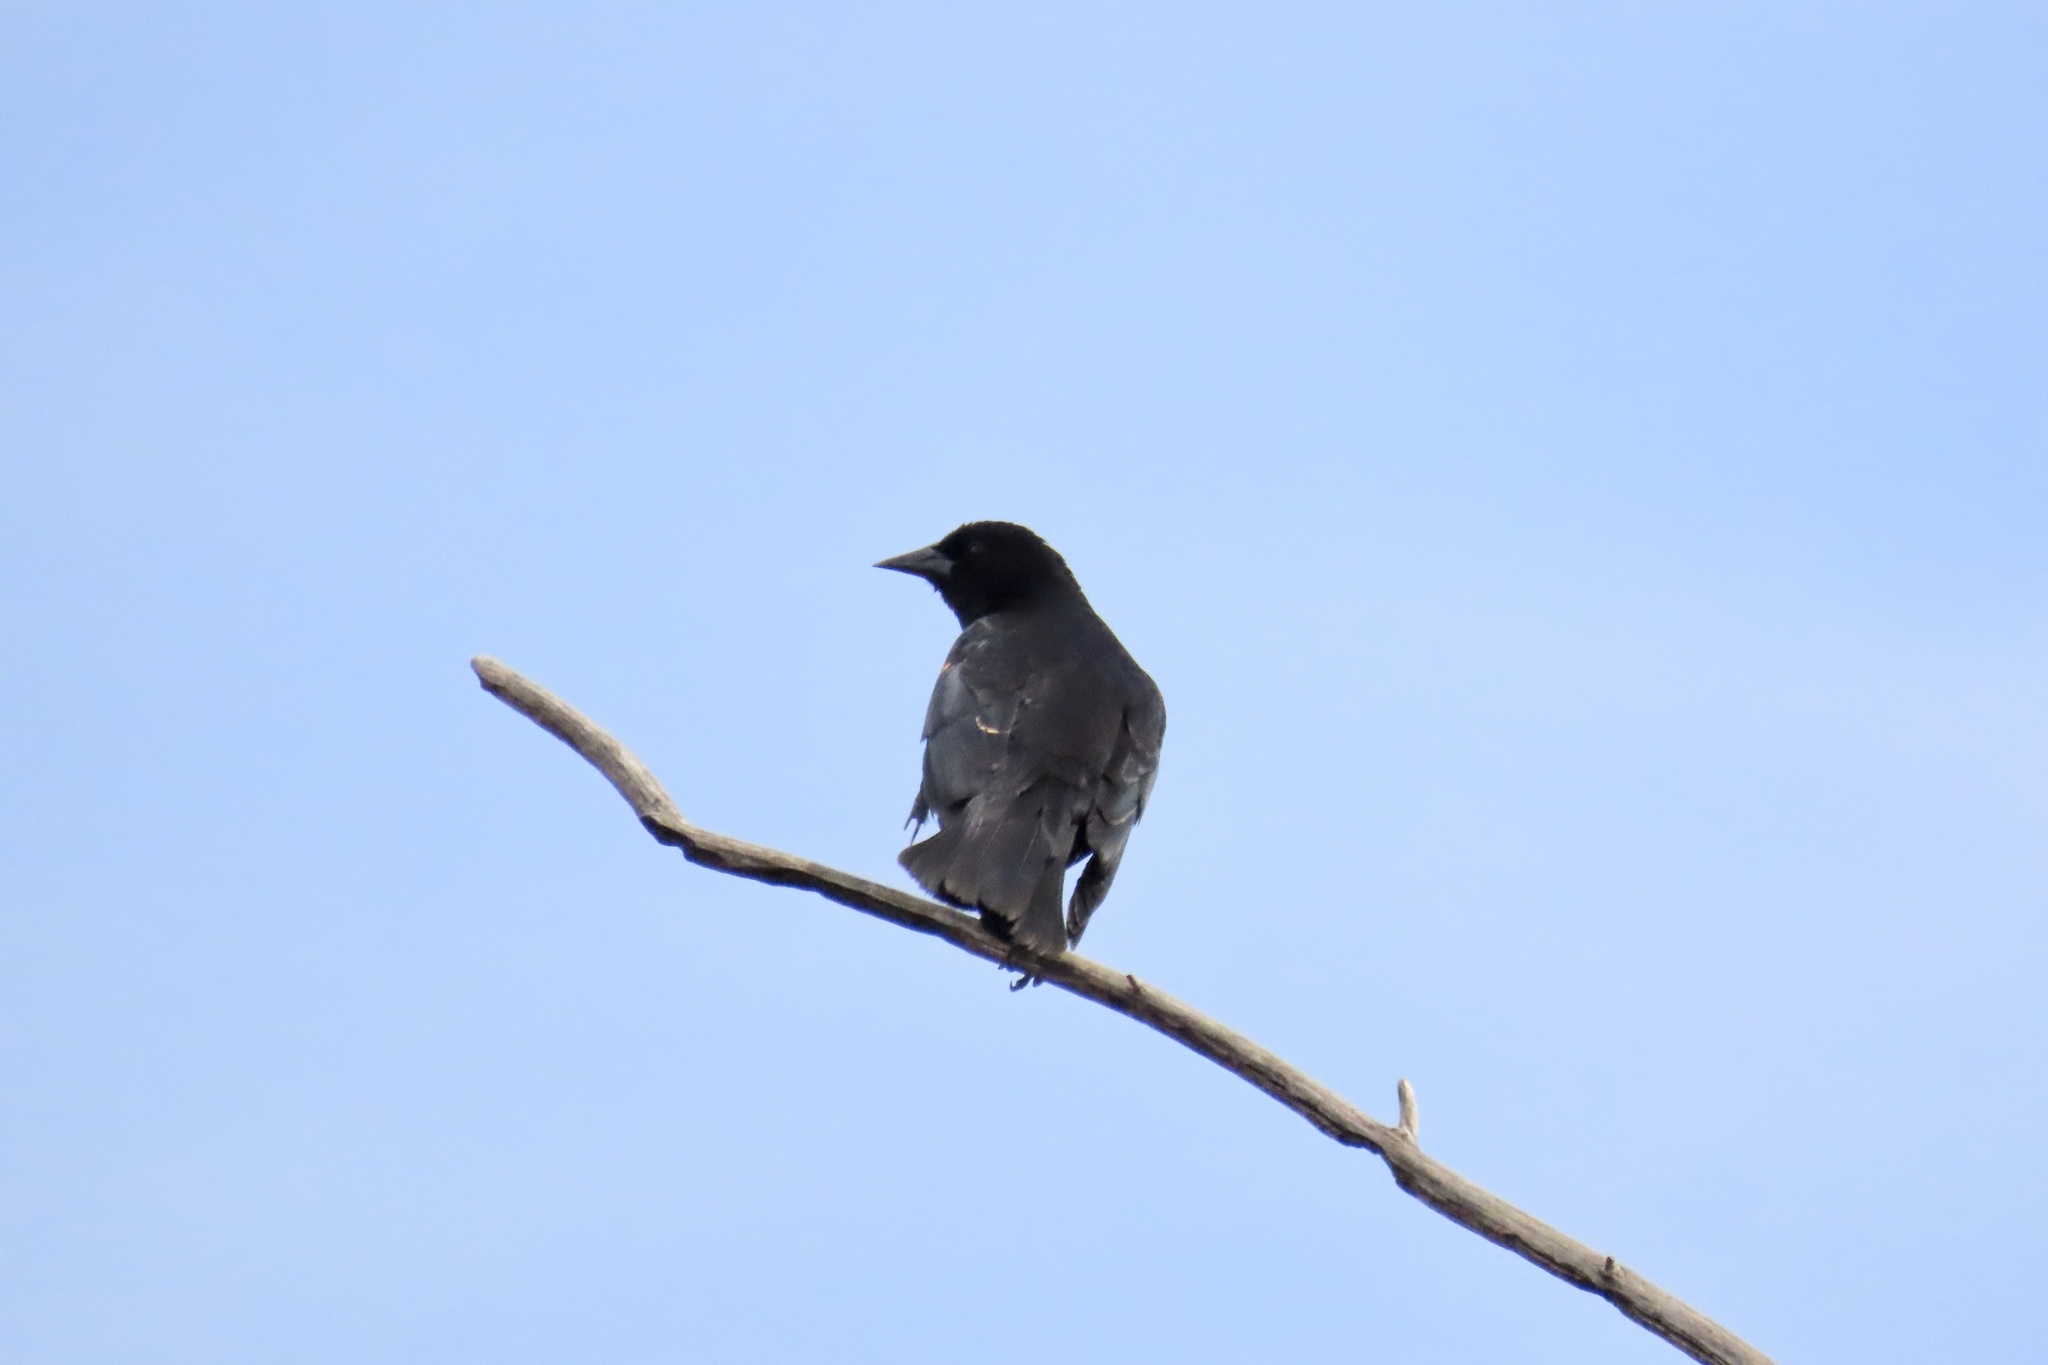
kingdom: Animalia
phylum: Chordata
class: Aves
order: Passeriformes
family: Icteridae
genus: Agelaius
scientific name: Agelaius phoeniceus
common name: Red-winged blackbird
